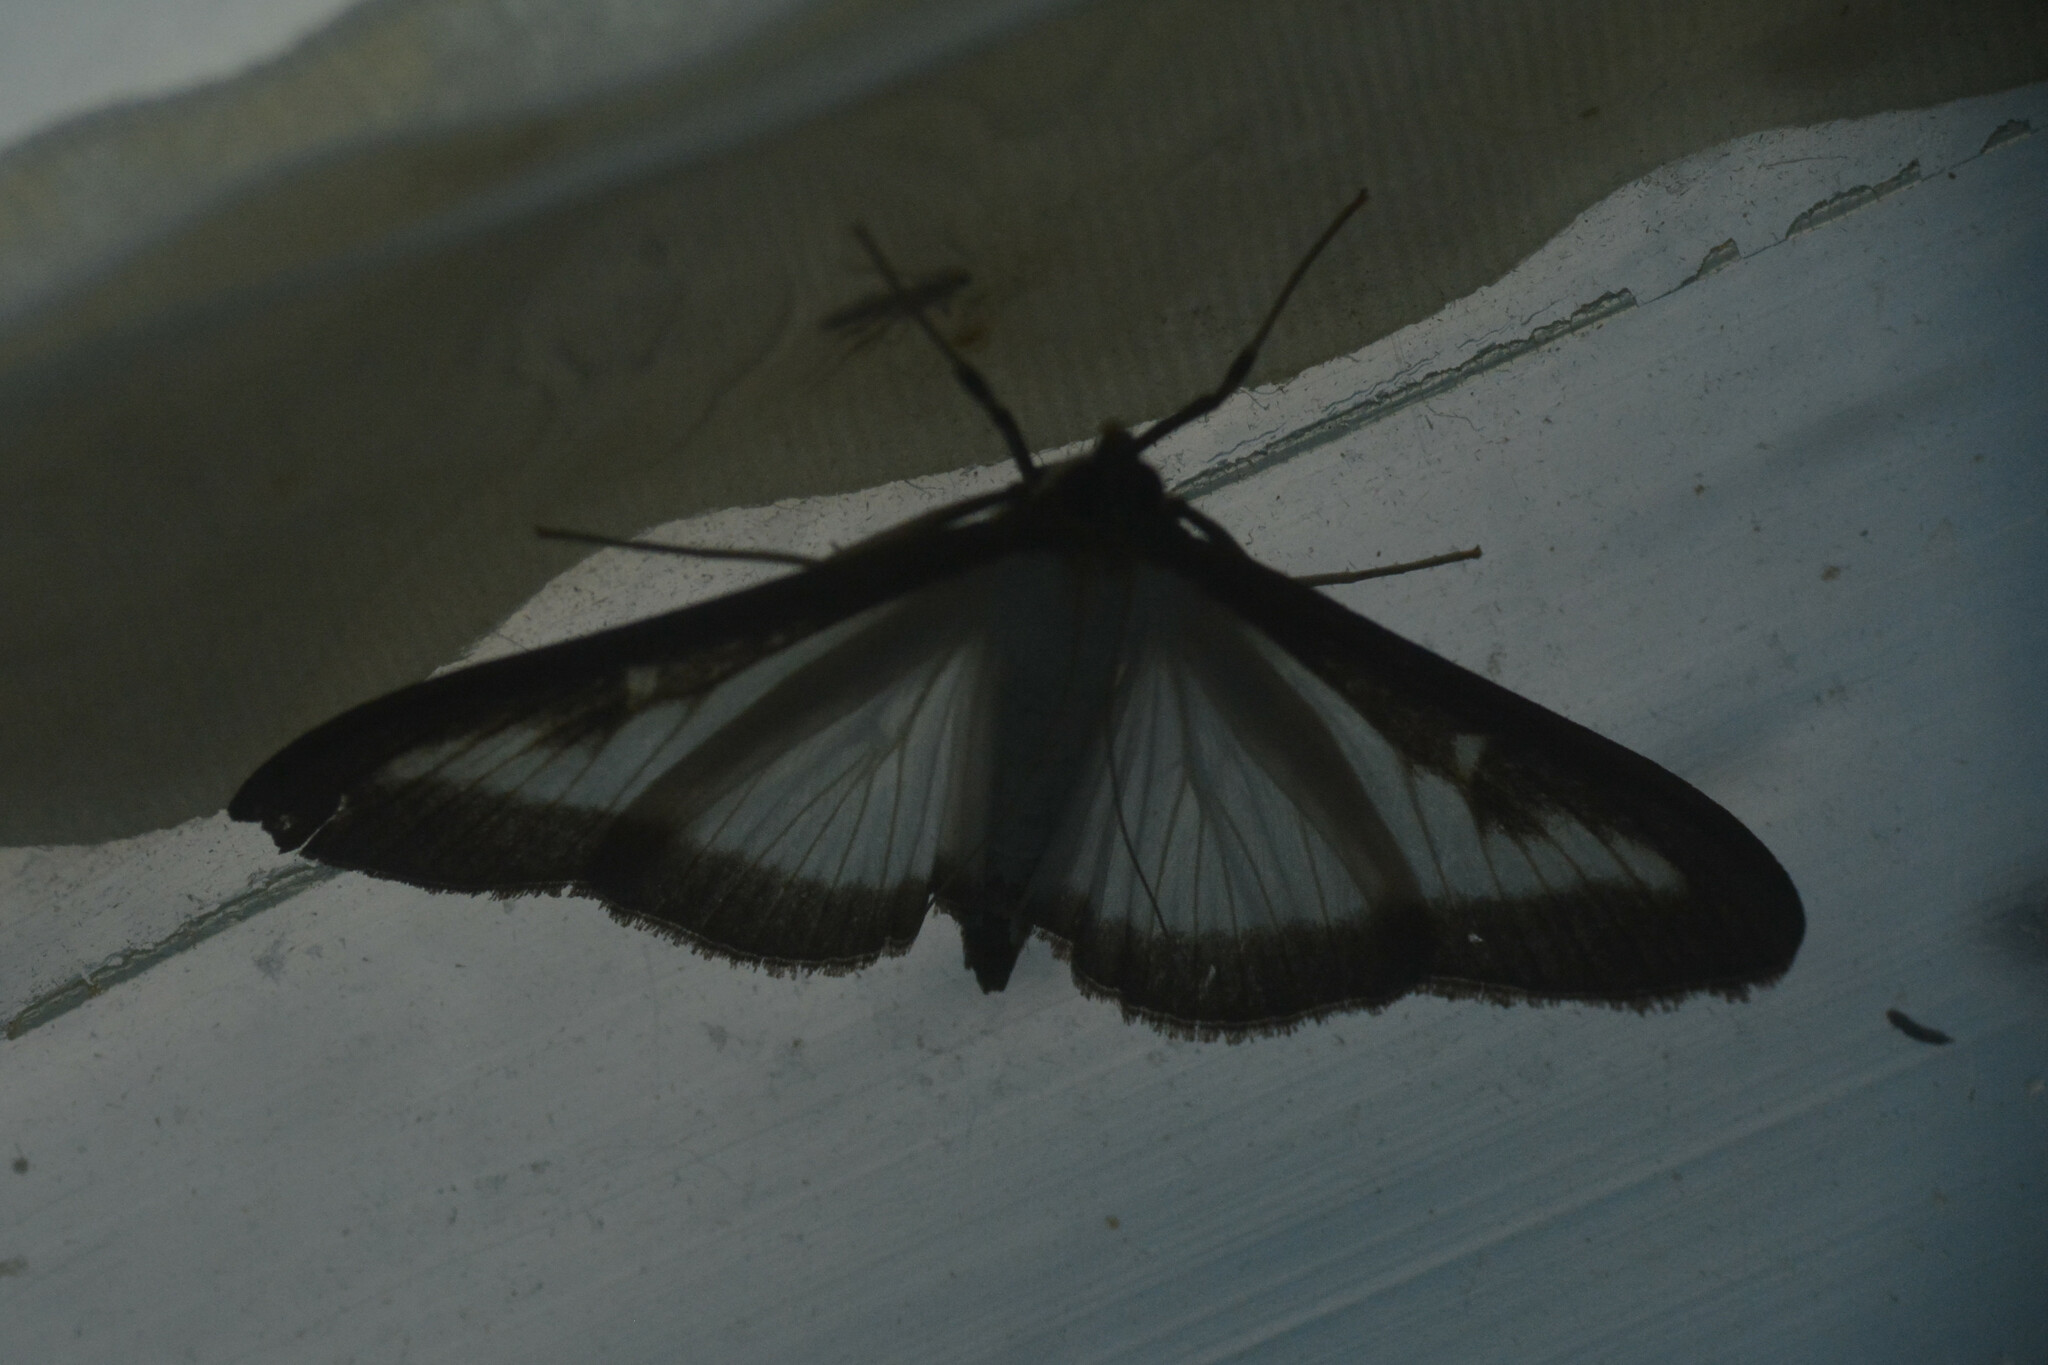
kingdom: Animalia
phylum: Arthropoda
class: Insecta
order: Lepidoptera
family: Crambidae
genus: Cydalima
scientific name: Cydalima perspectalis
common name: Box tree moth
